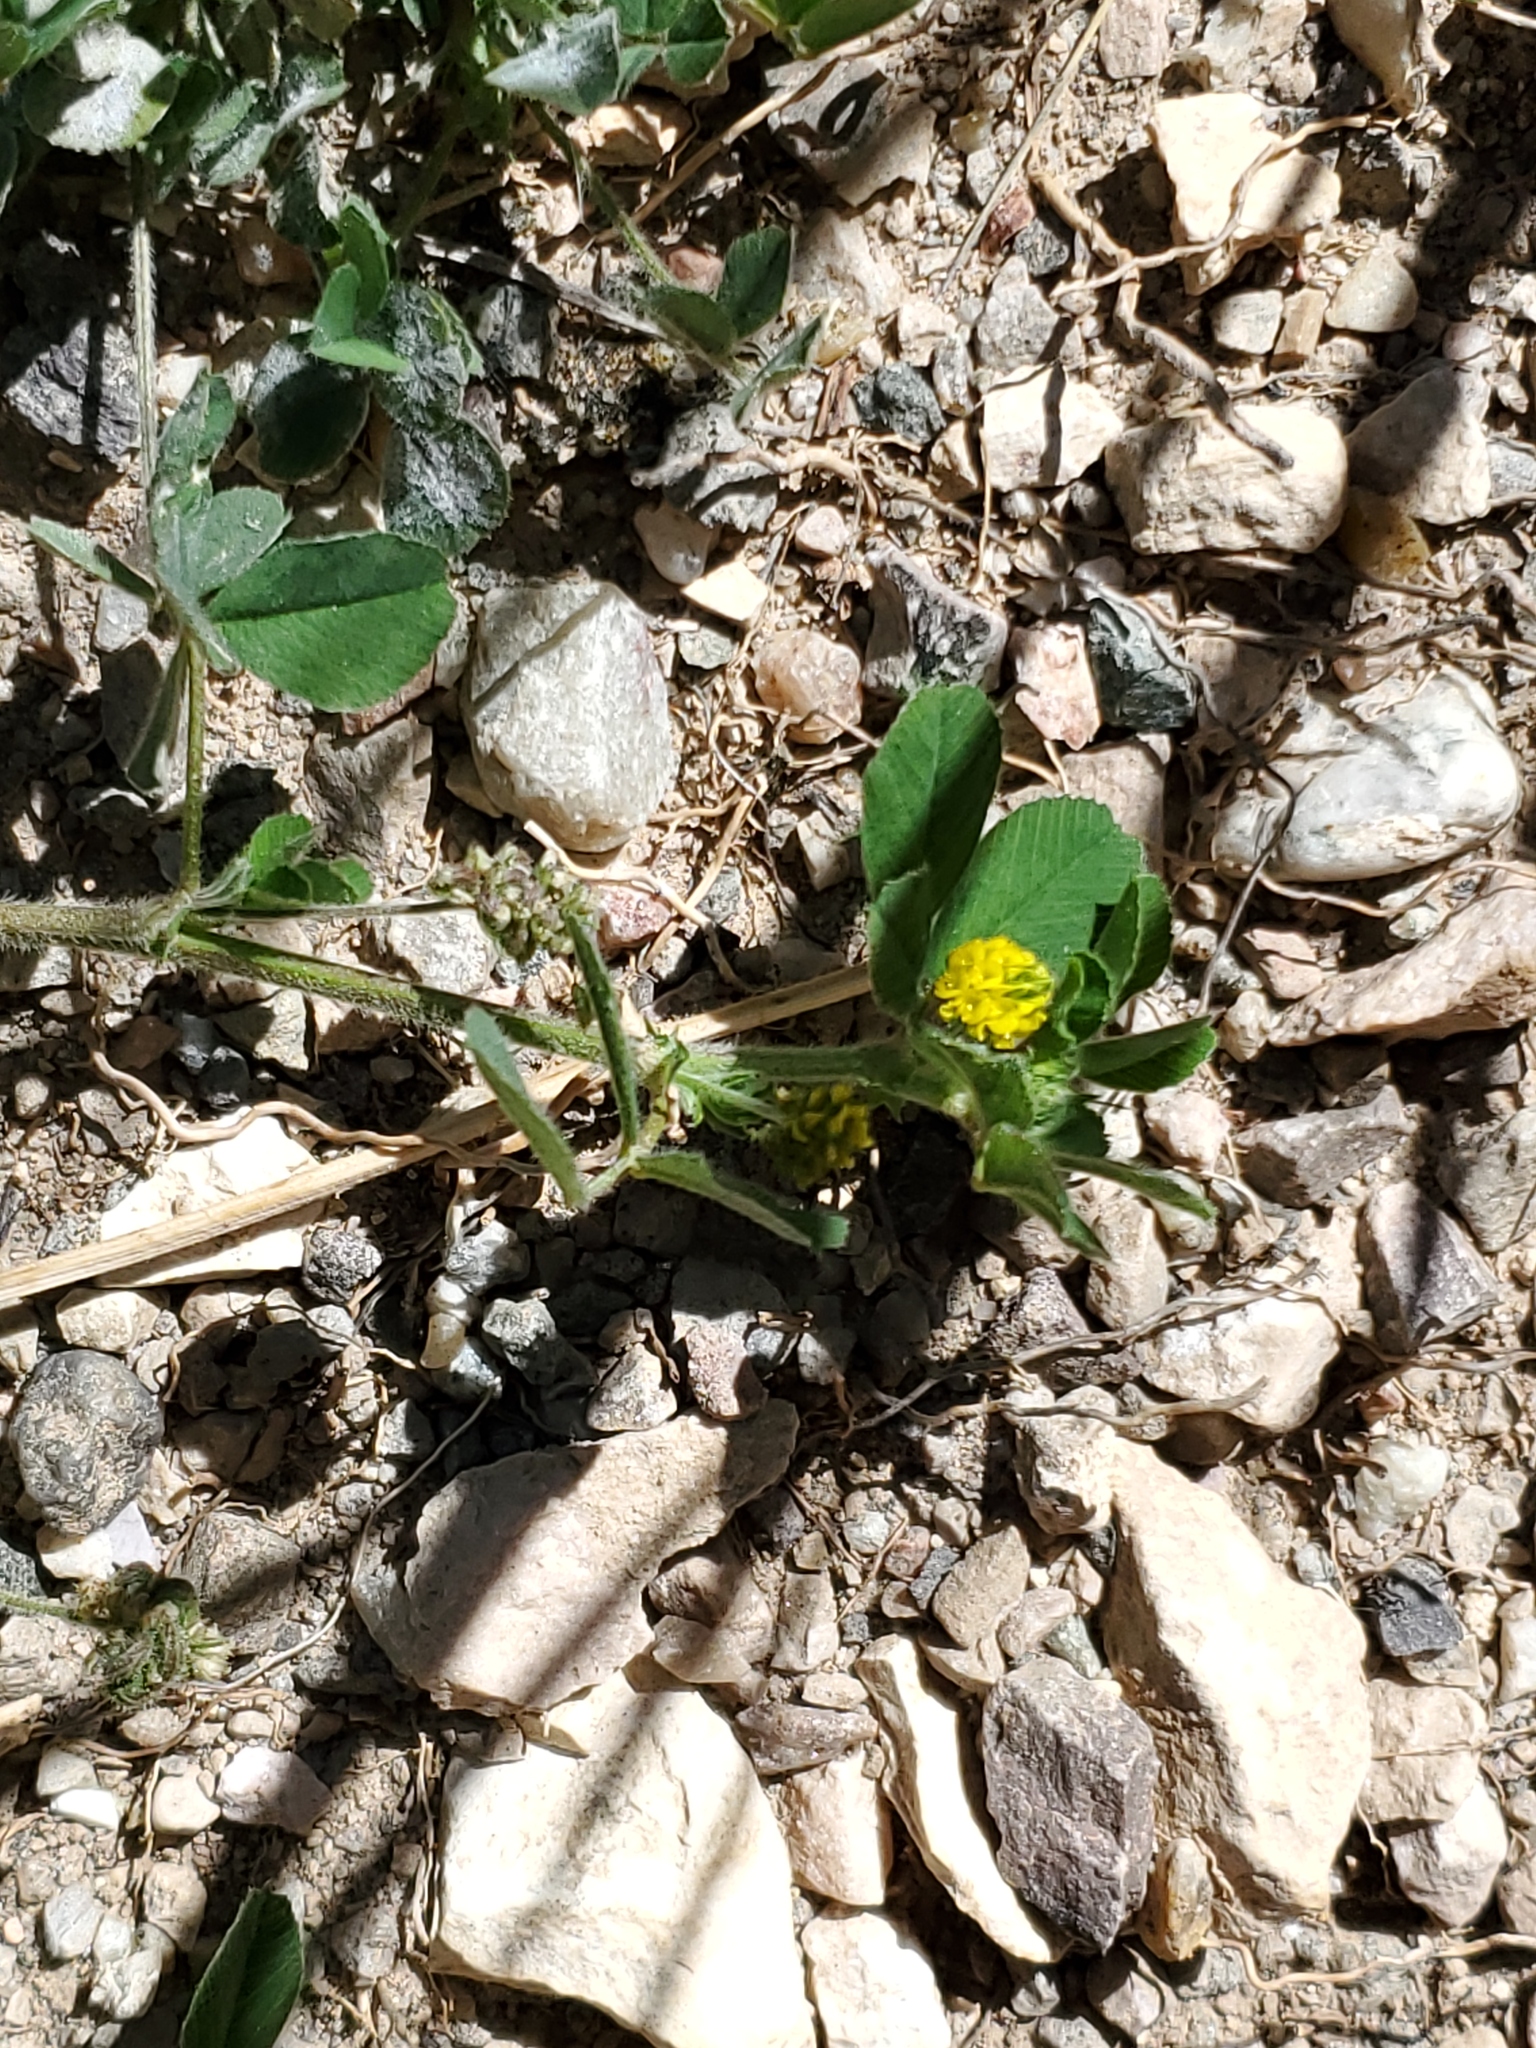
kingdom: Plantae
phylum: Tracheophyta
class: Magnoliopsida
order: Fabales
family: Fabaceae
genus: Medicago
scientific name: Medicago lupulina
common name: Black medick
